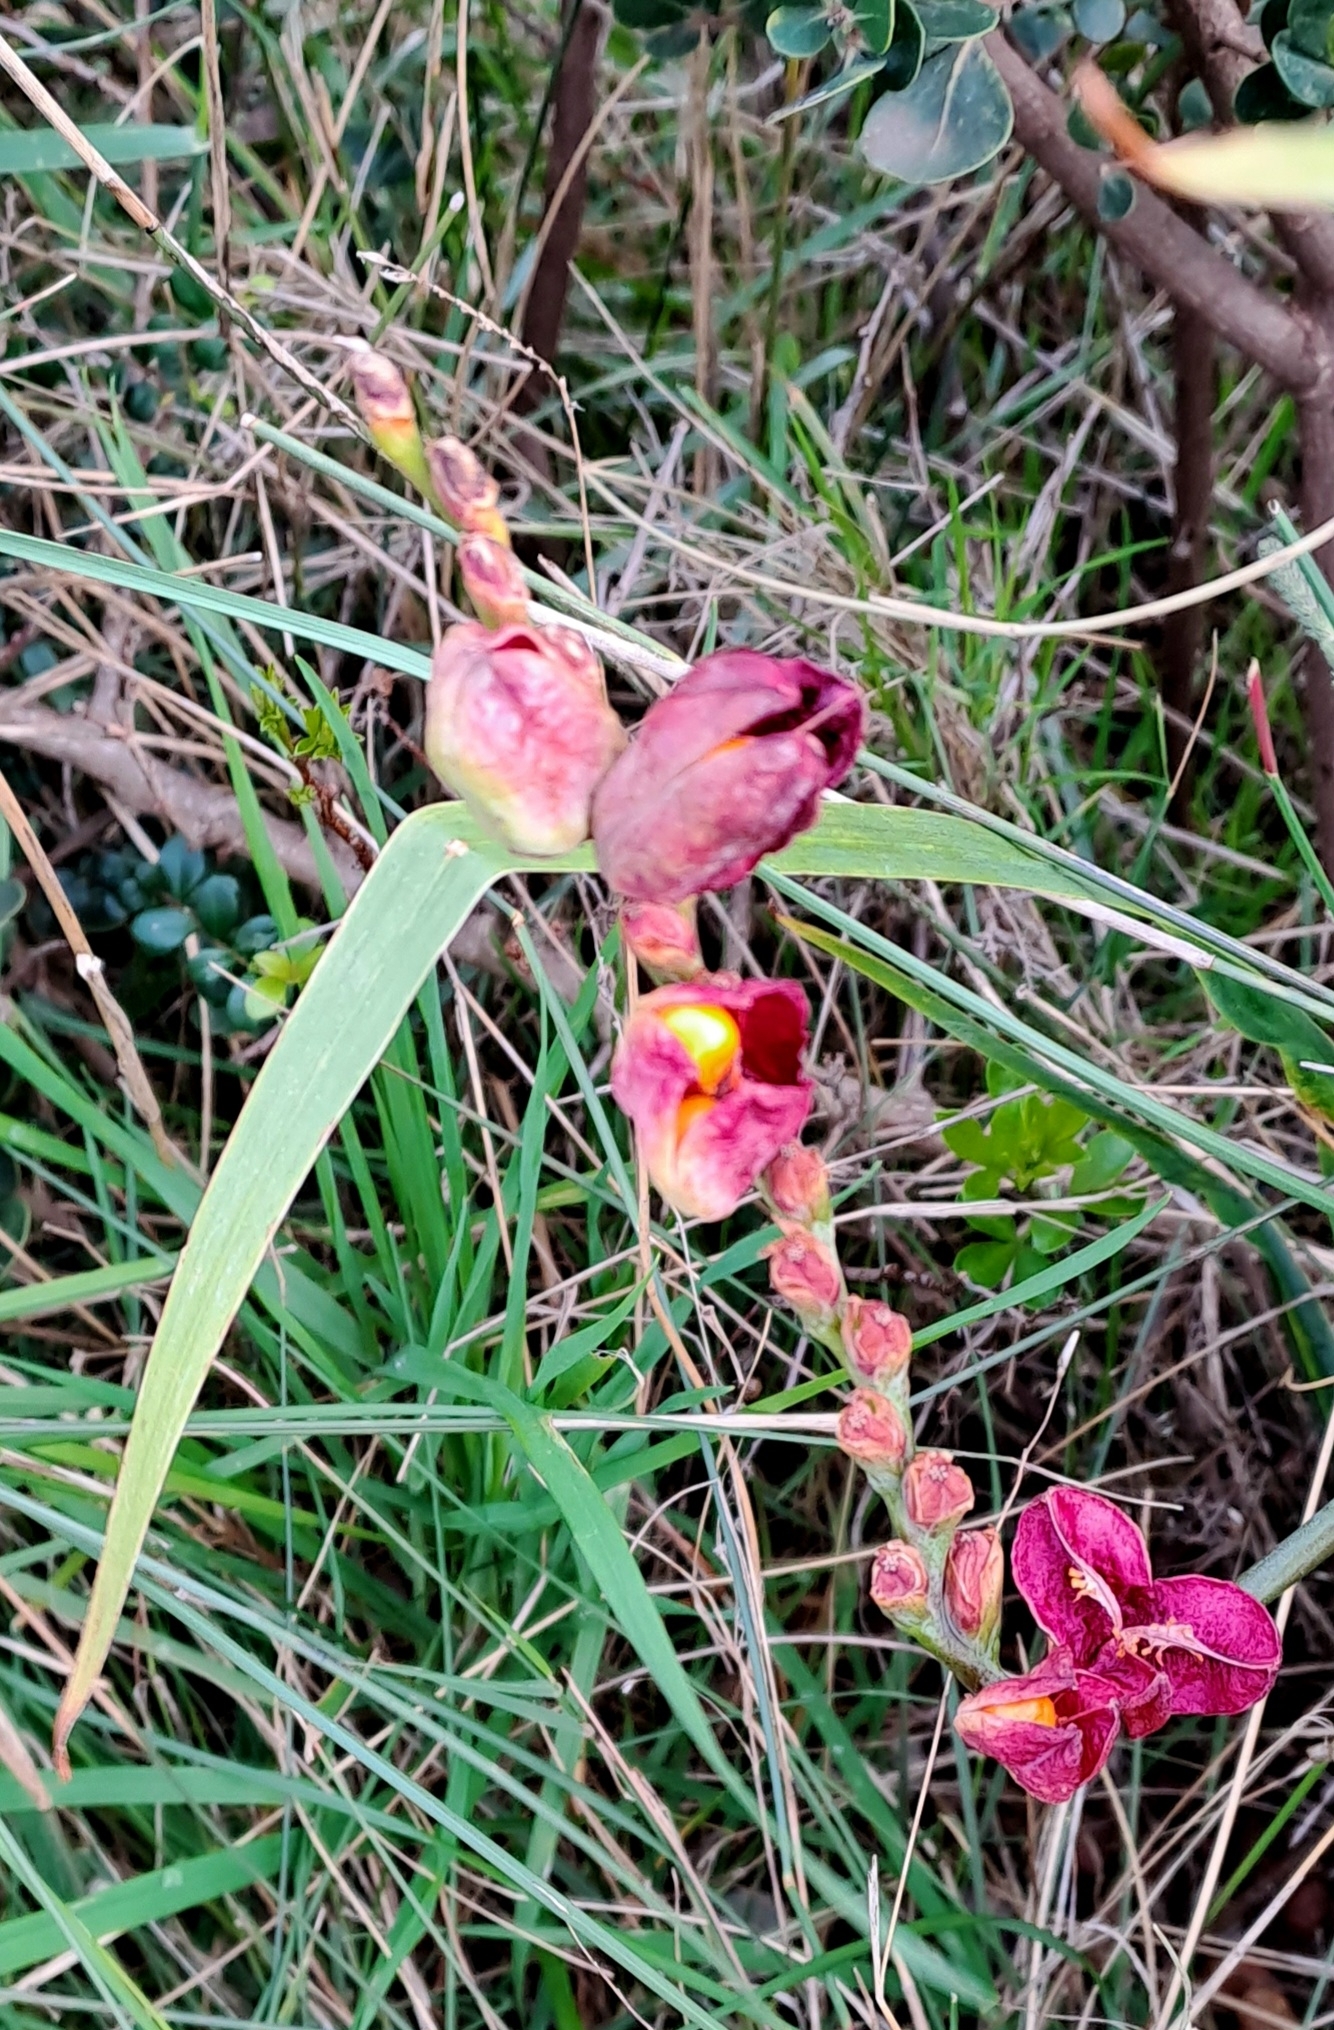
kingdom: Plantae
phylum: Tracheophyta
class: Liliopsida
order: Asparagales
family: Iridaceae
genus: Chasmanthe
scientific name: Chasmanthe aethiopica
